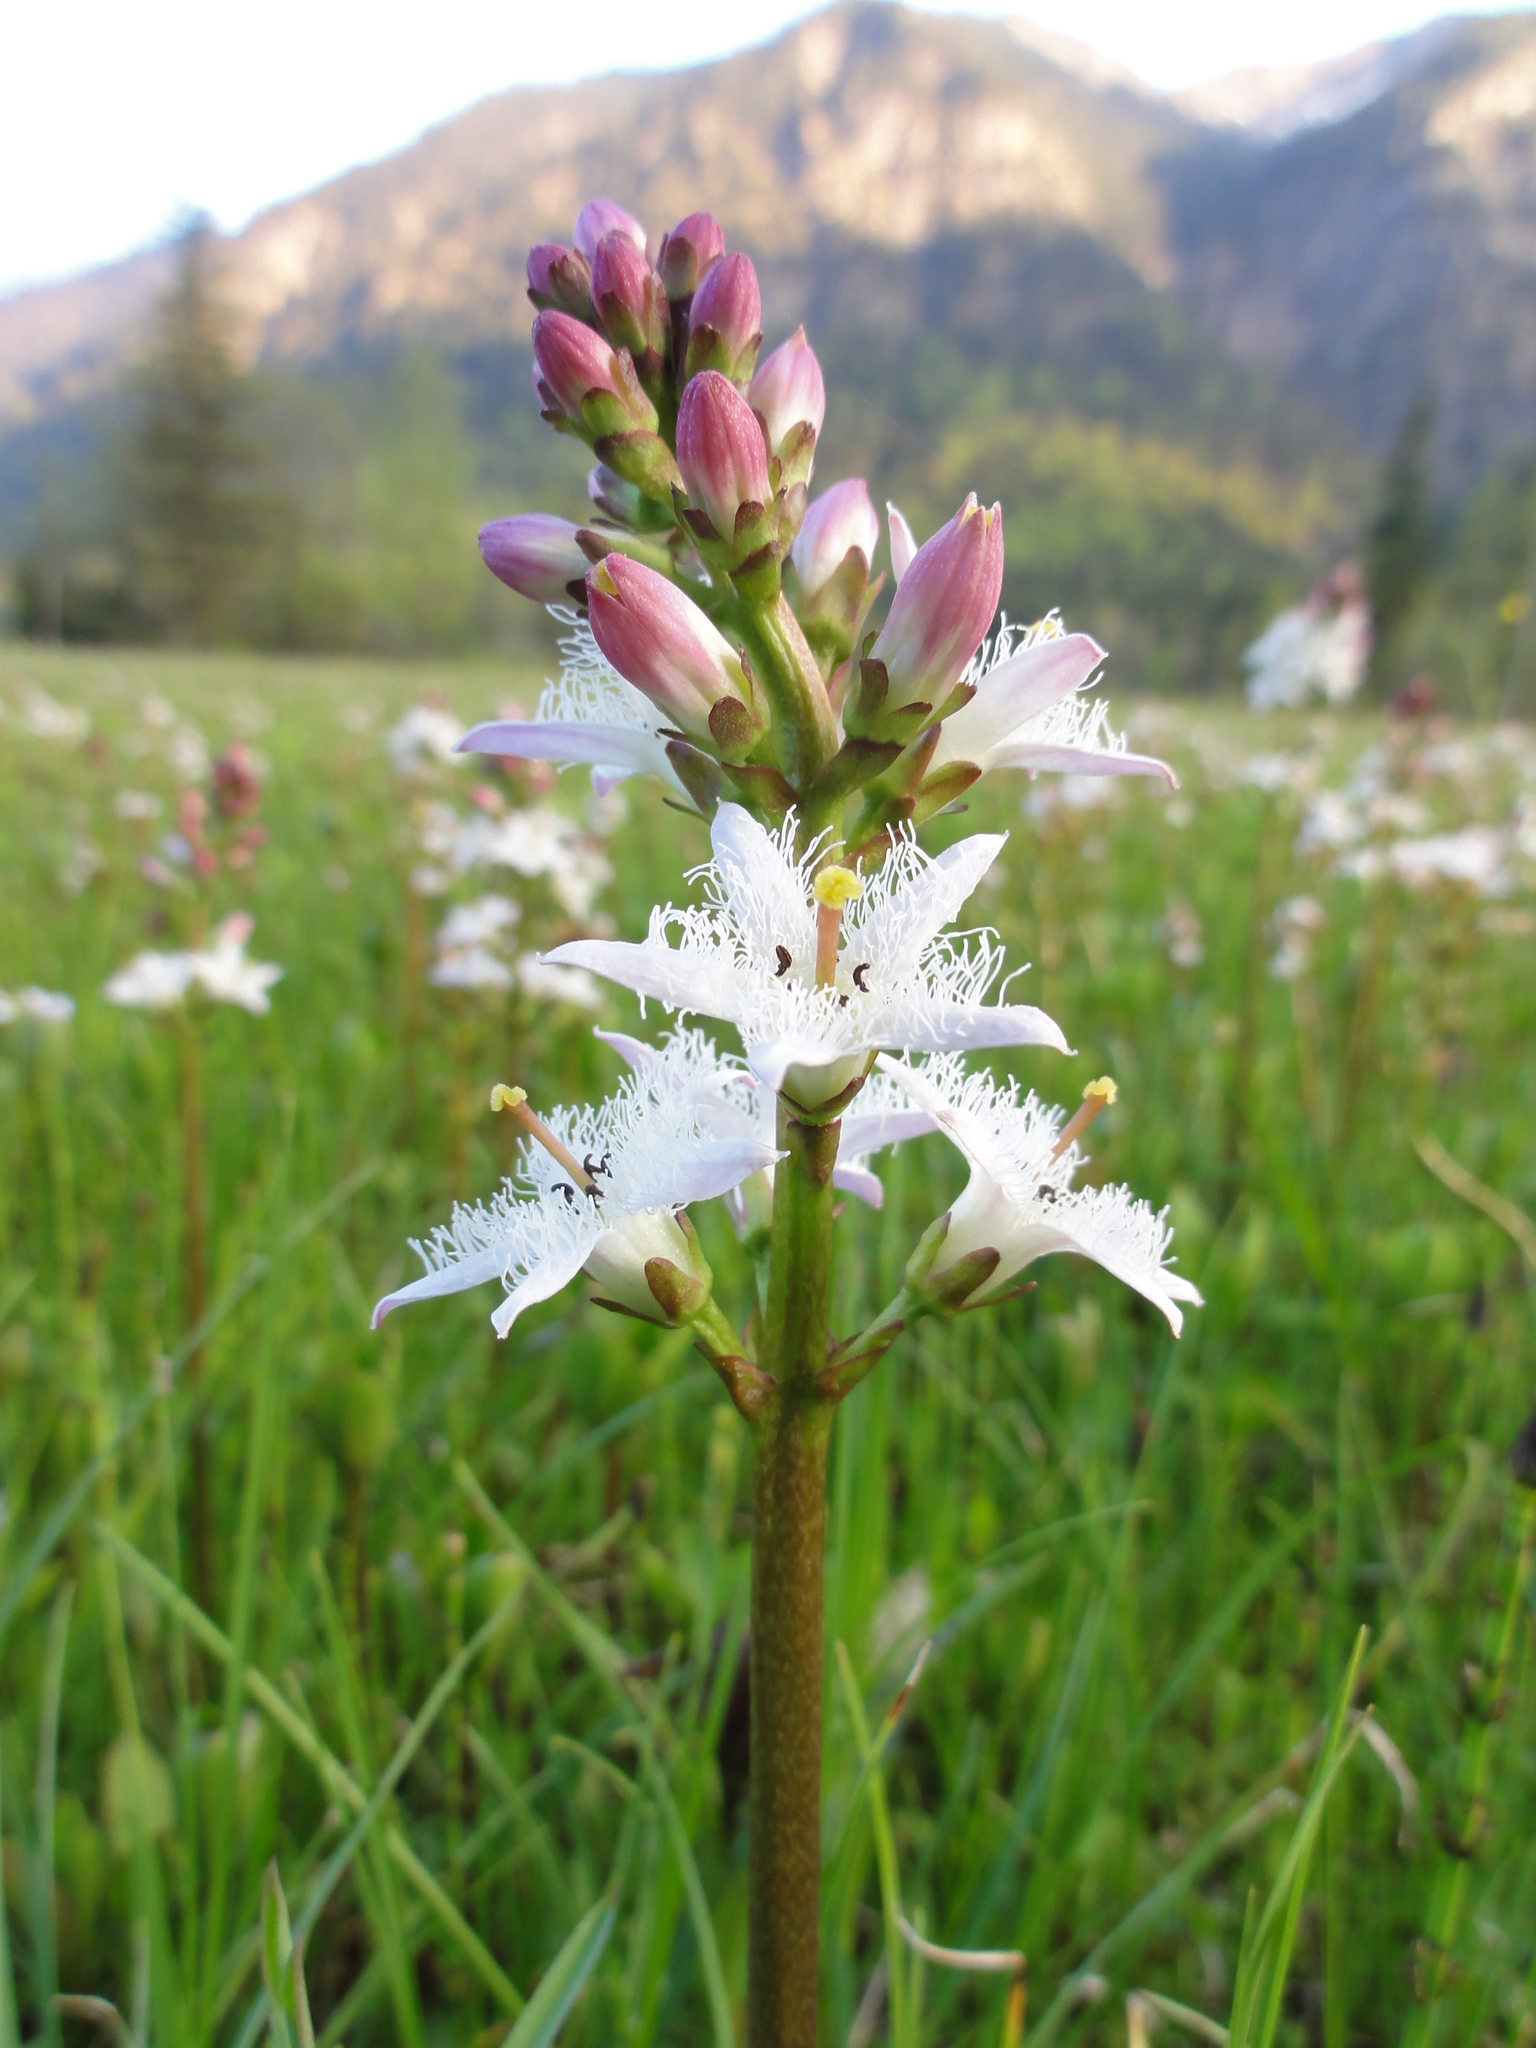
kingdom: Plantae
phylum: Tracheophyta
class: Magnoliopsida
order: Asterales
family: Menyanthaceae
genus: Menyanthes
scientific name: Menyanthes trifoliata
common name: Bogbean
